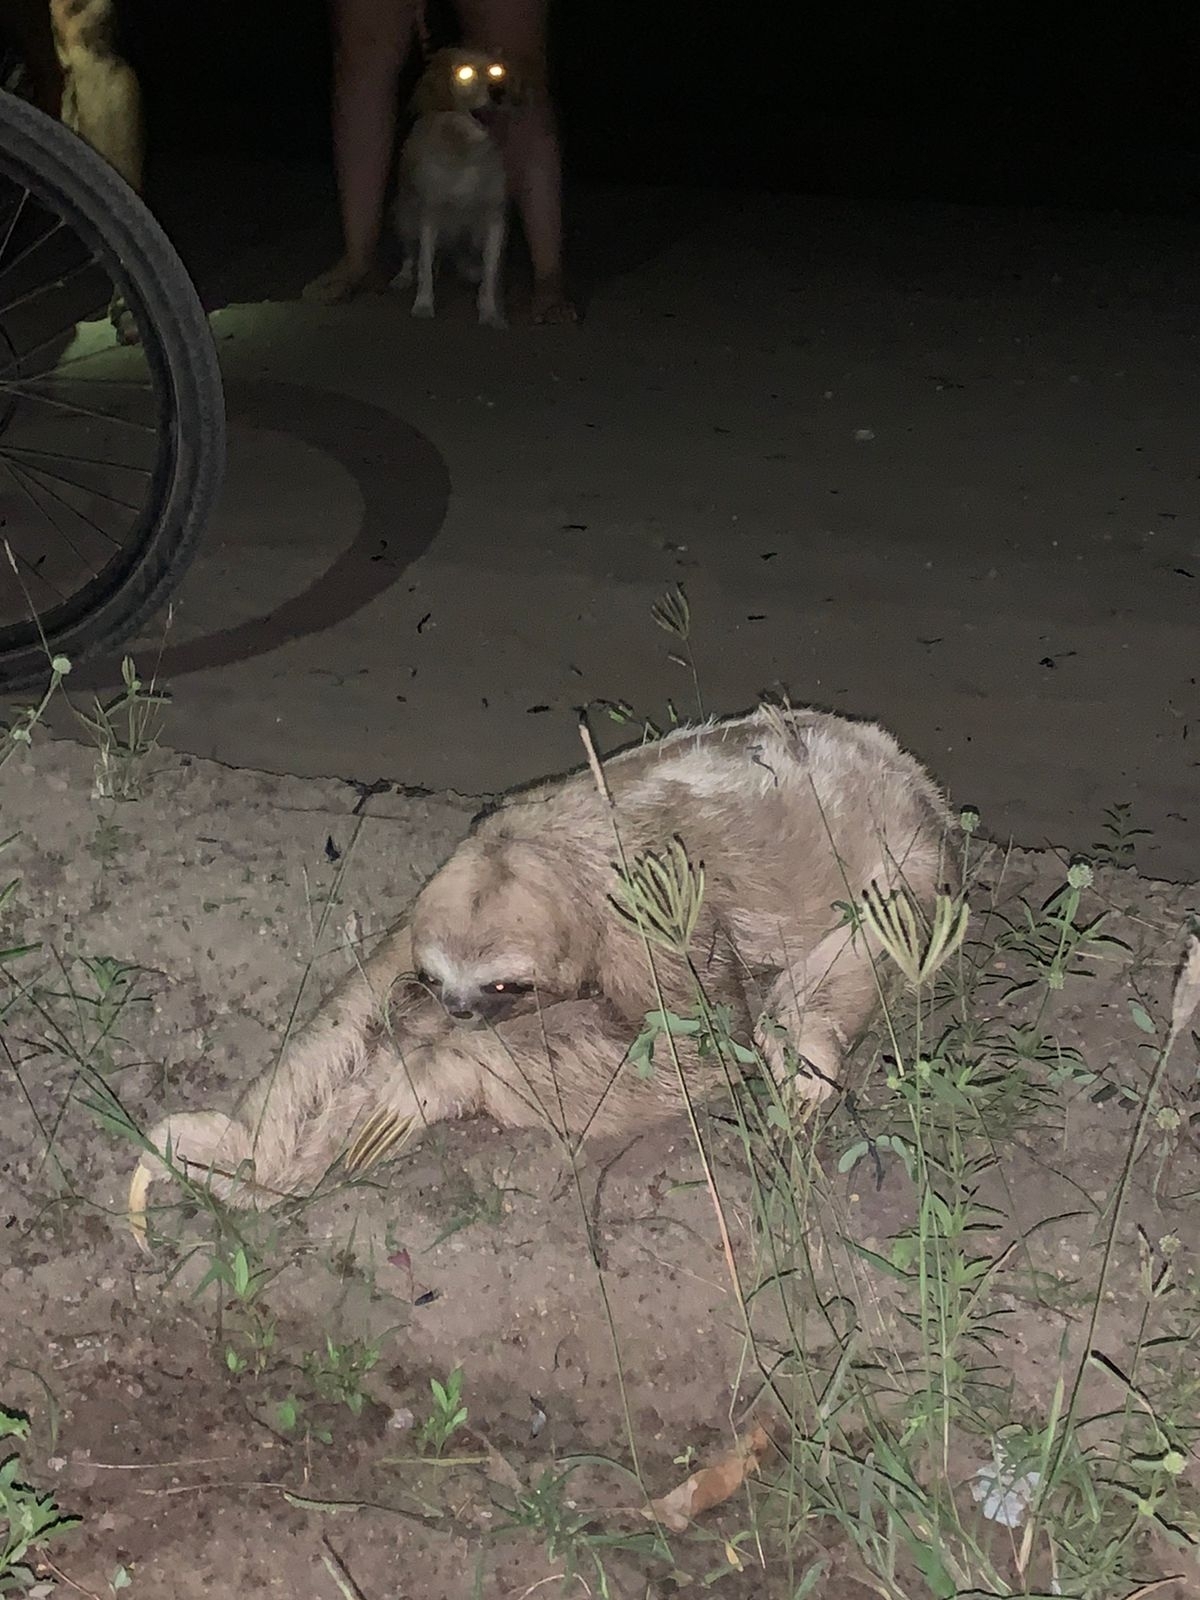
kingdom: Animalia
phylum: Chordata
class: Mammalia
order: Pilosa
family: Bradypodidae
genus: Bradypus
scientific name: Bradypus variegatus
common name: Brown-throated three-toed sloth
